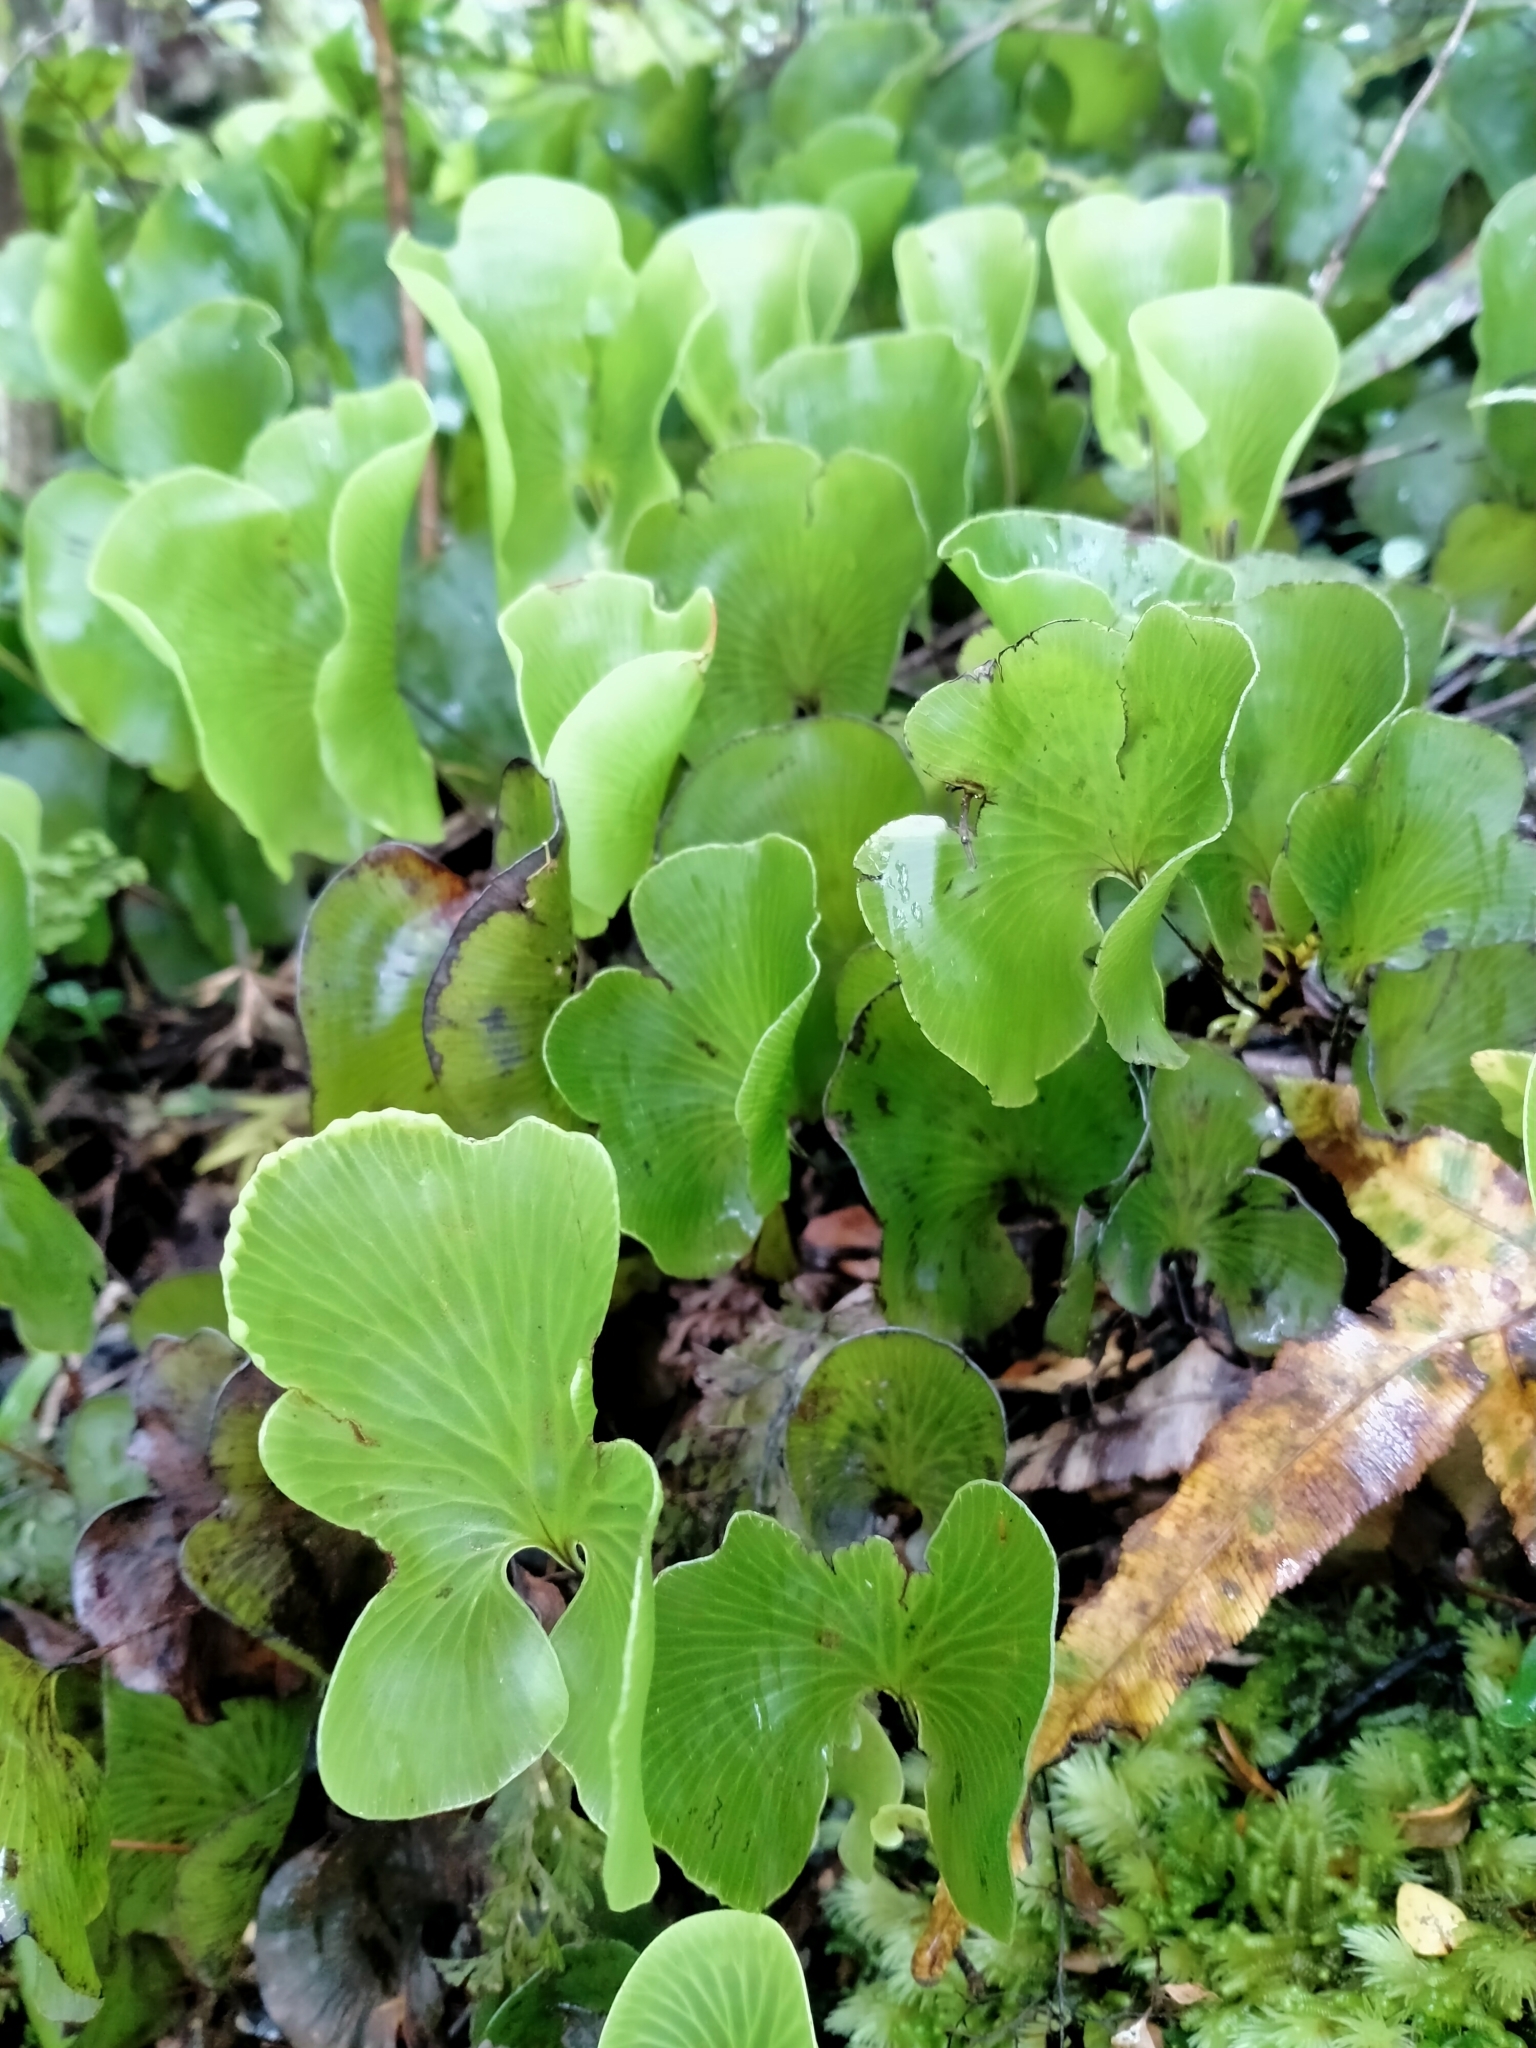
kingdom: Plantae
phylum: Tracheophyta
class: Polypodiopsida
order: Hymenophyllales
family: Hymenophyllaceae
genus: Hymenophyllum
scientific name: Hymenophyllum nephrophyllum
